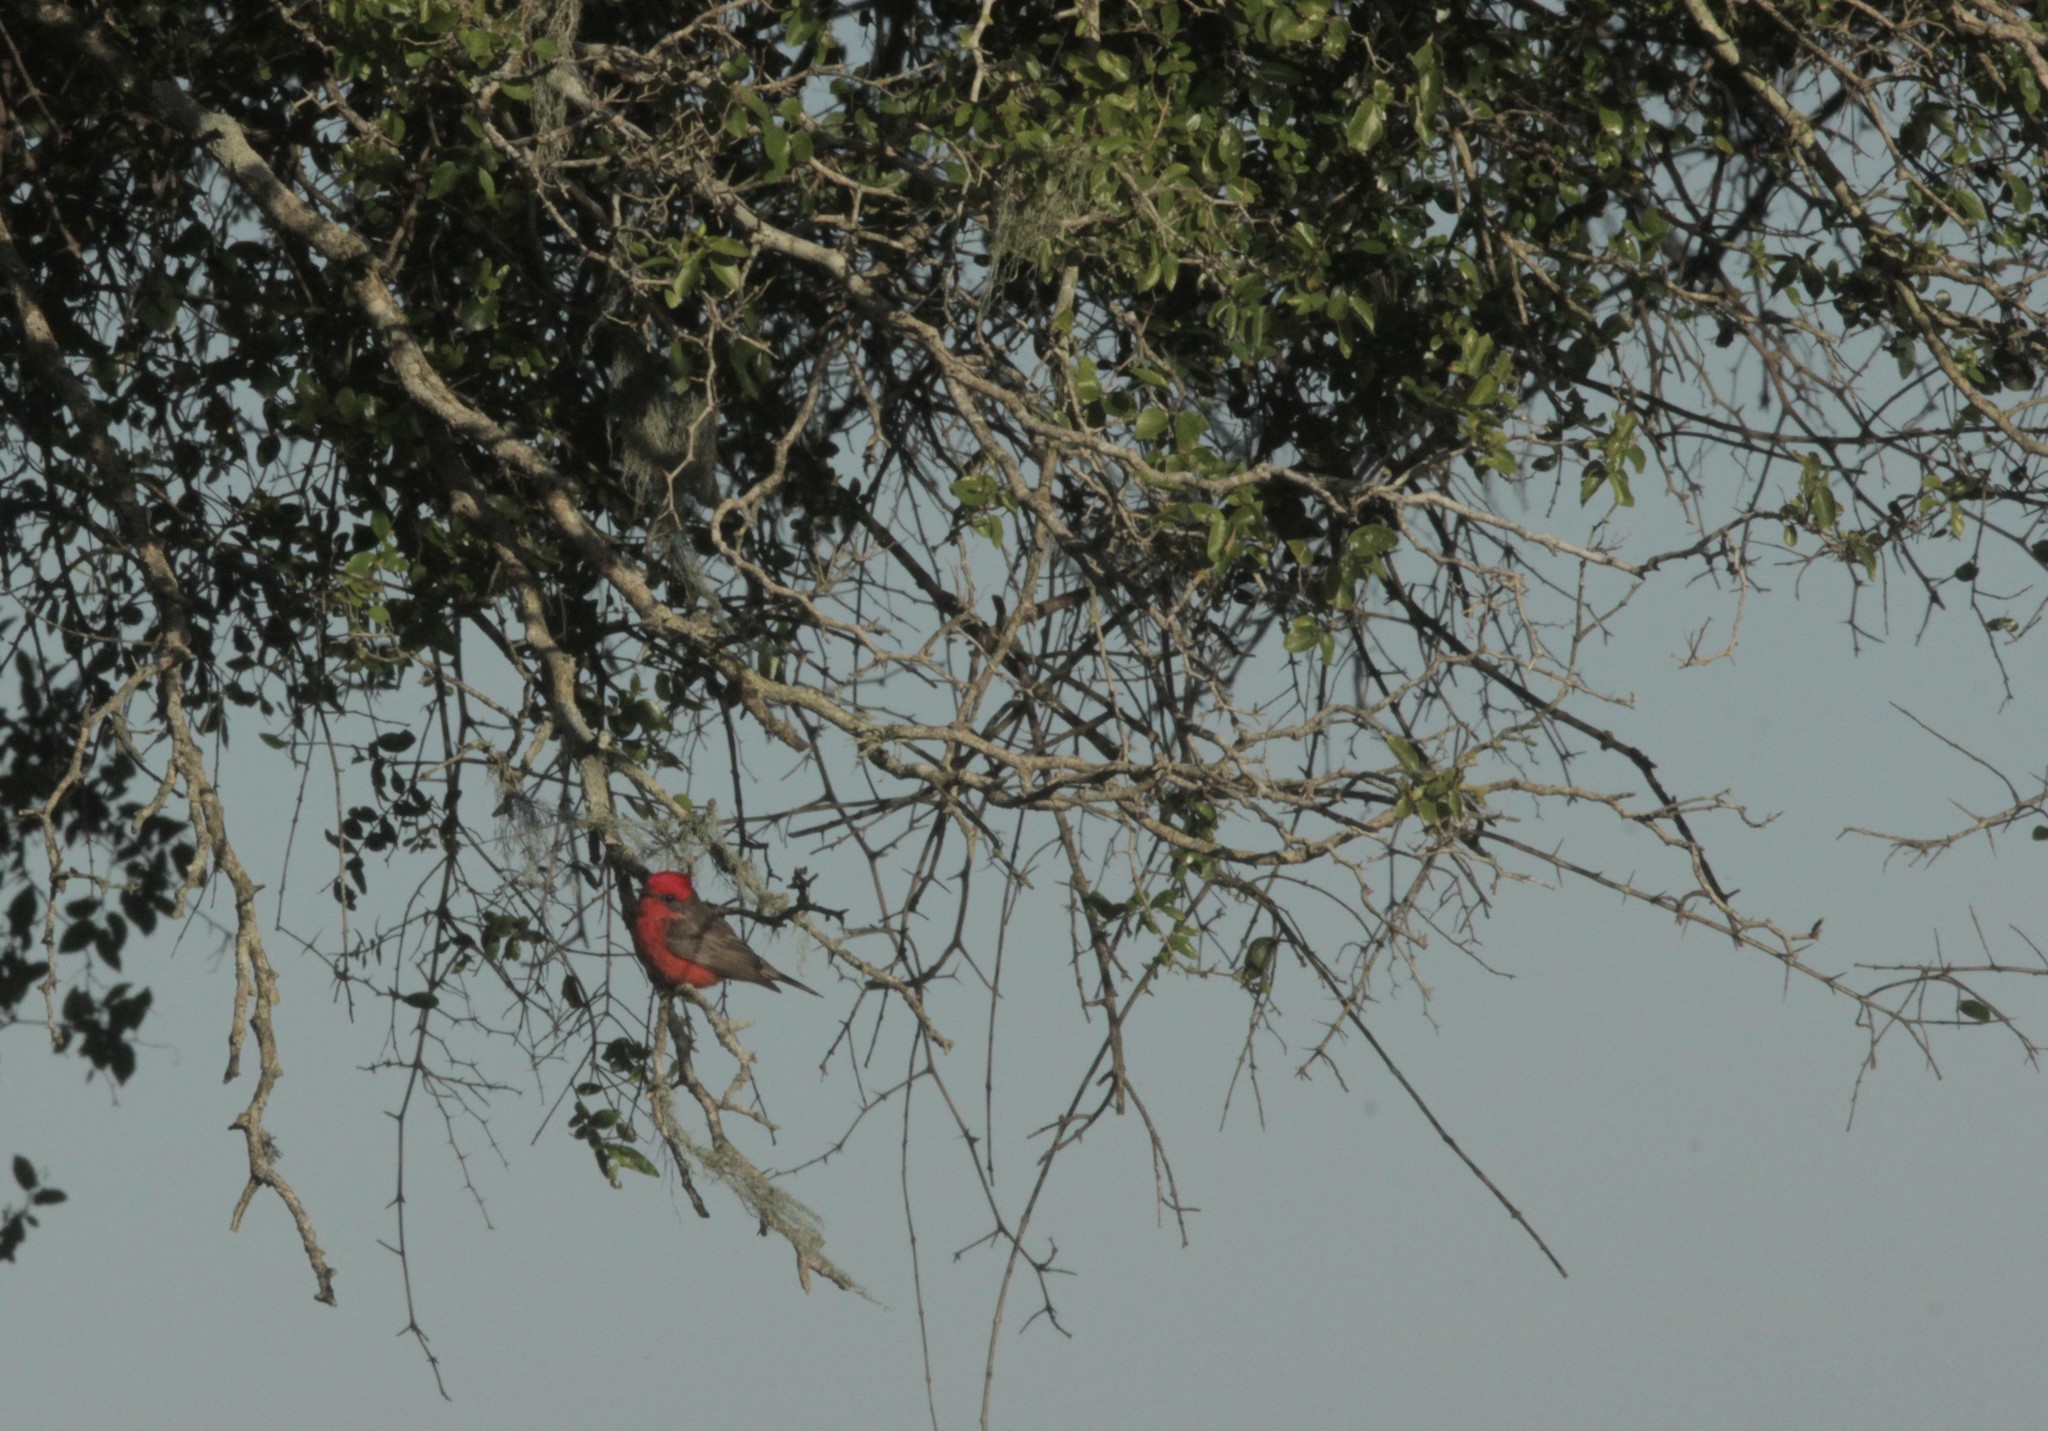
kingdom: Animalia
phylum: Chordata
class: Aves
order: Passeriformes
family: Tyrannidae
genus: Pyrocephalus
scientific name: Pyrocephalus rubinus
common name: Vermilion flycatcher
